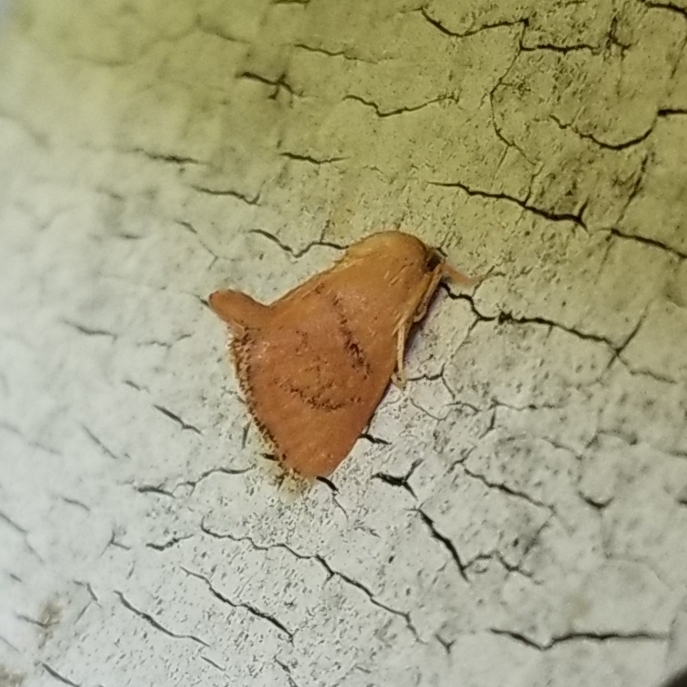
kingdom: Animalia
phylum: Arthropoda
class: Insecta
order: Lepidoptera
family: Limacodidae
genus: Tortricidia
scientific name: Tortricidia flexuosa
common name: Abbreviated button slug moth
